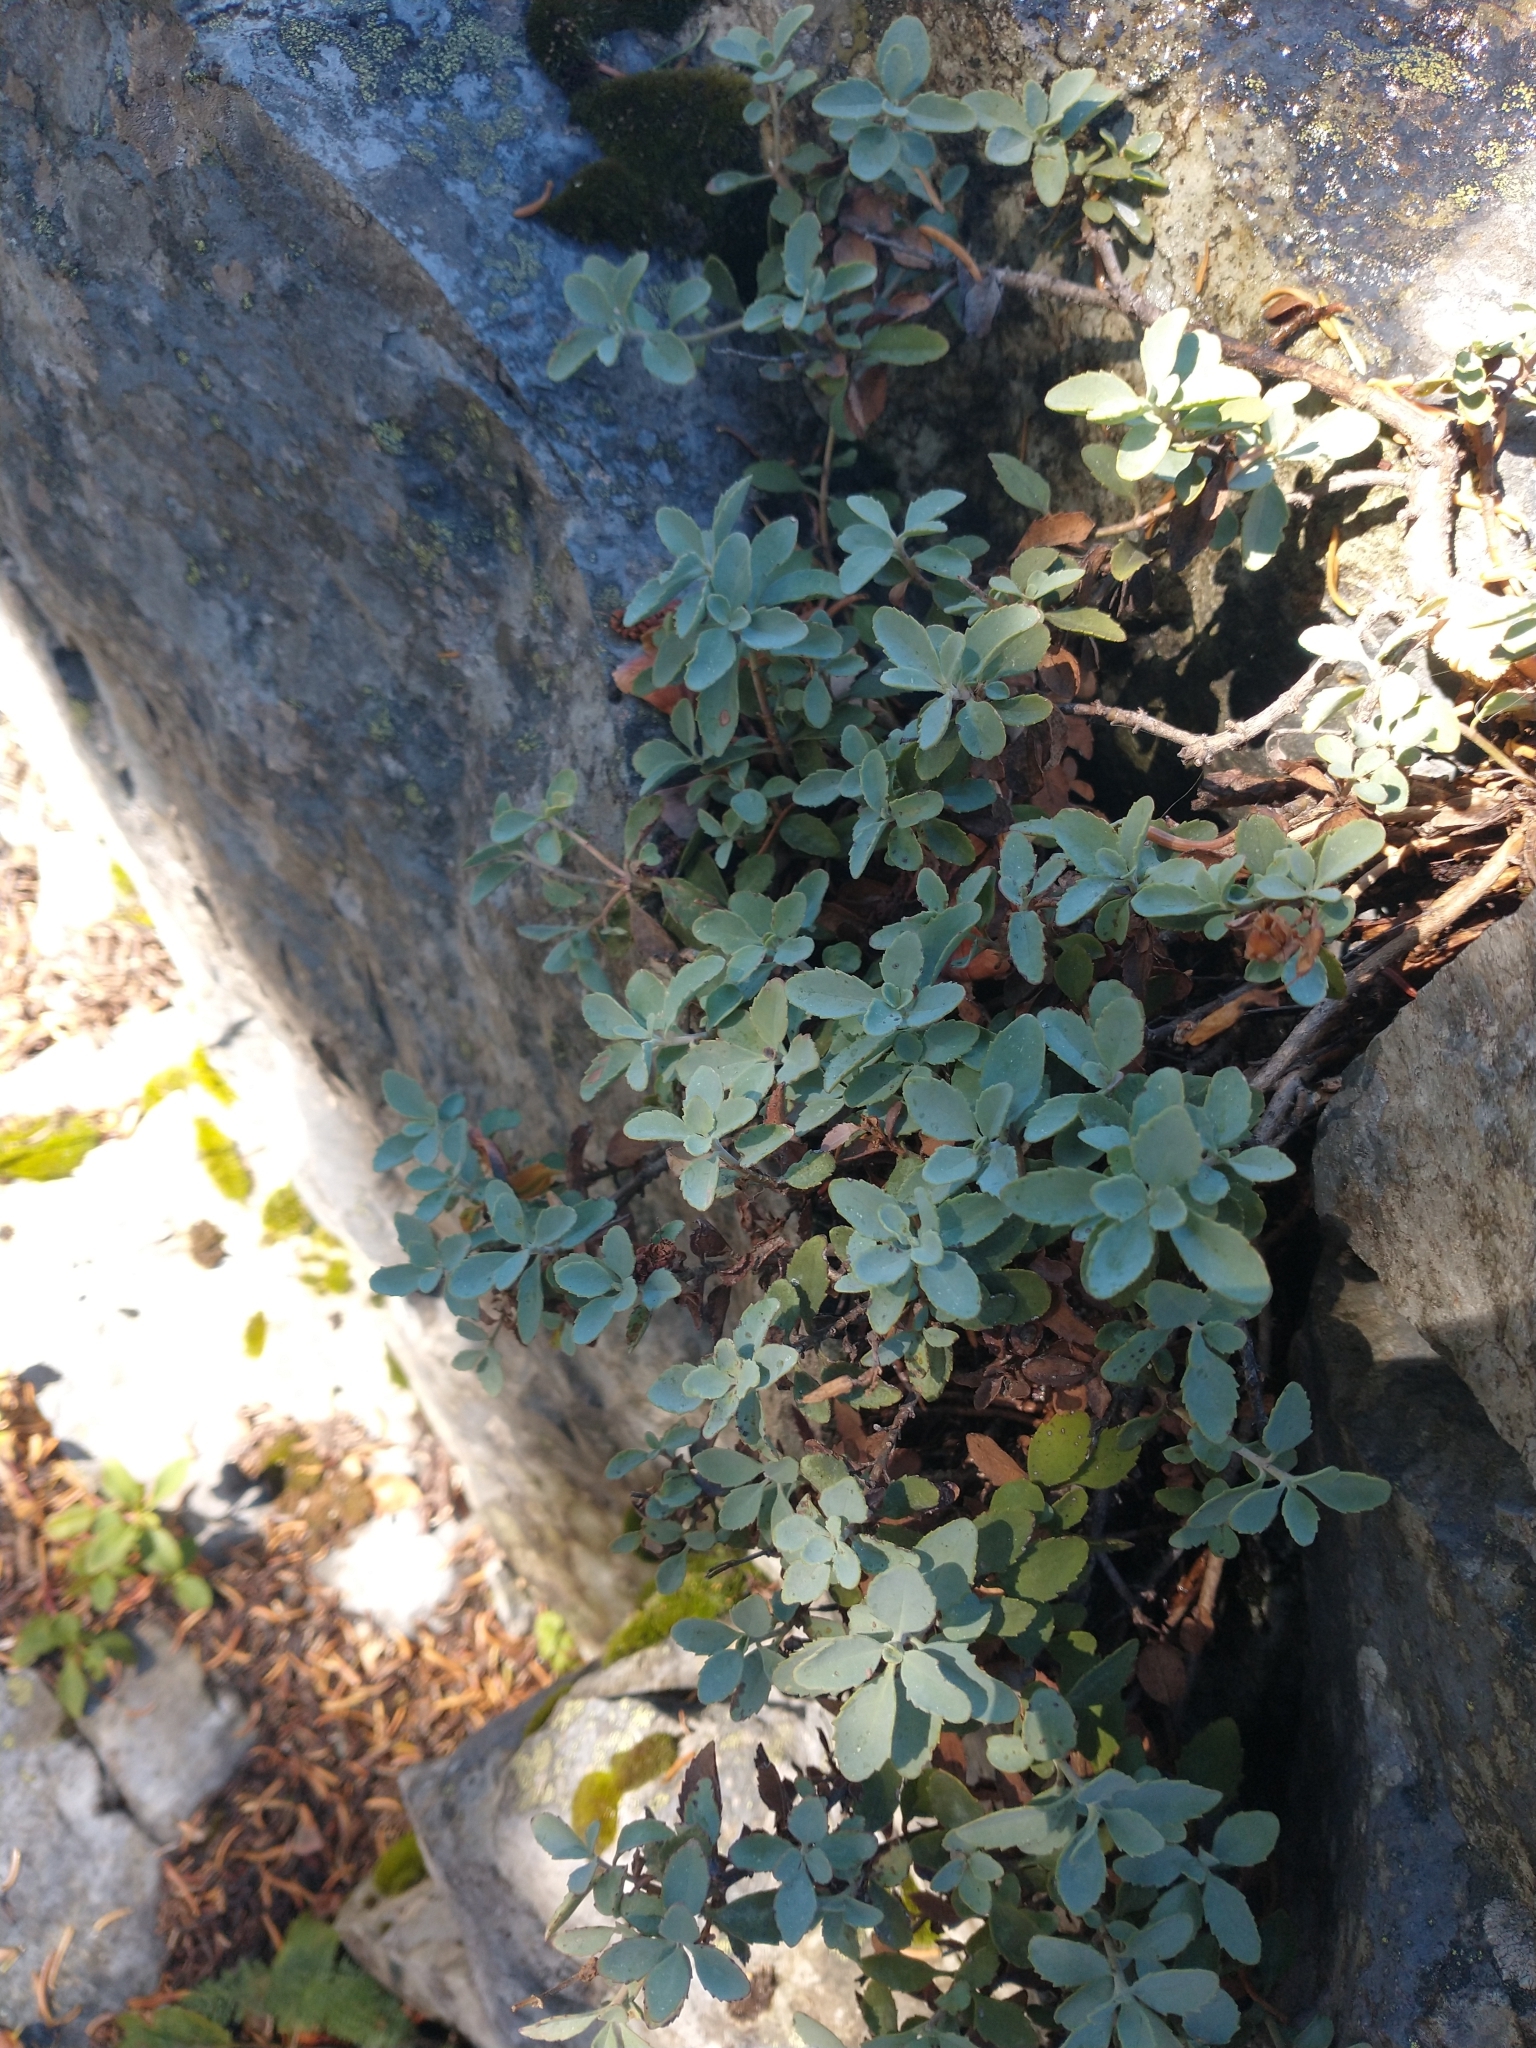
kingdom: Plantae
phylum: Tracheophyta
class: Magnoliopsida
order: Lamiales
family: Plantaginaceae
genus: Penstemon
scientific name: Penstemon rupicola
